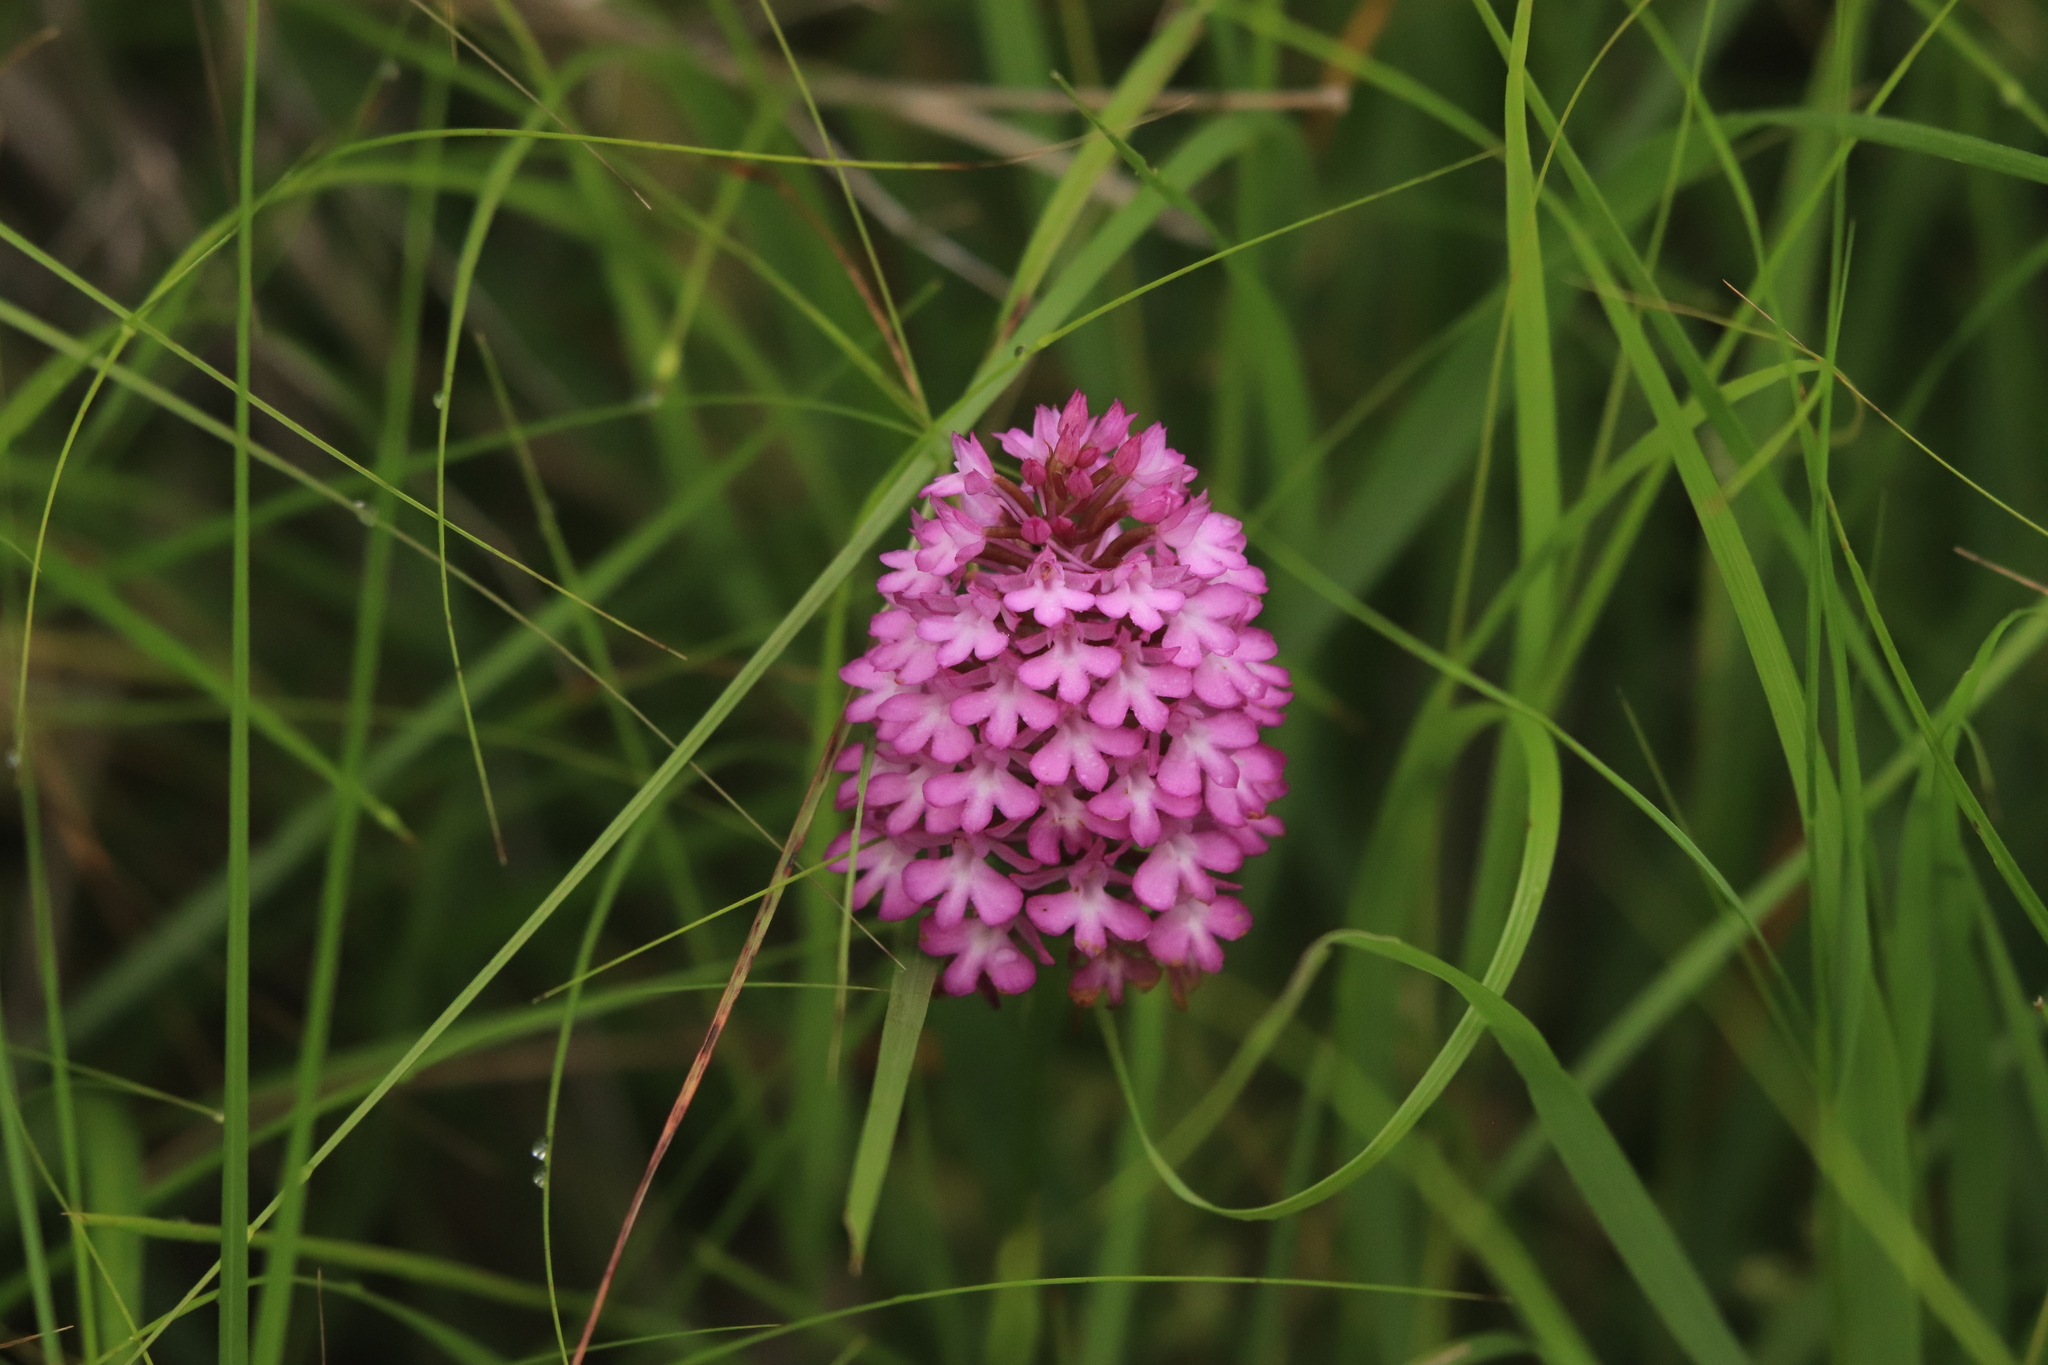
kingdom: Plantae
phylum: Tracheophyta
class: Liliopsida
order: Asparagales
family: Orchidaceae
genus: Anacamptis
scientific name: Anacamptis pyramidalis
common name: Pyramidal orchid
